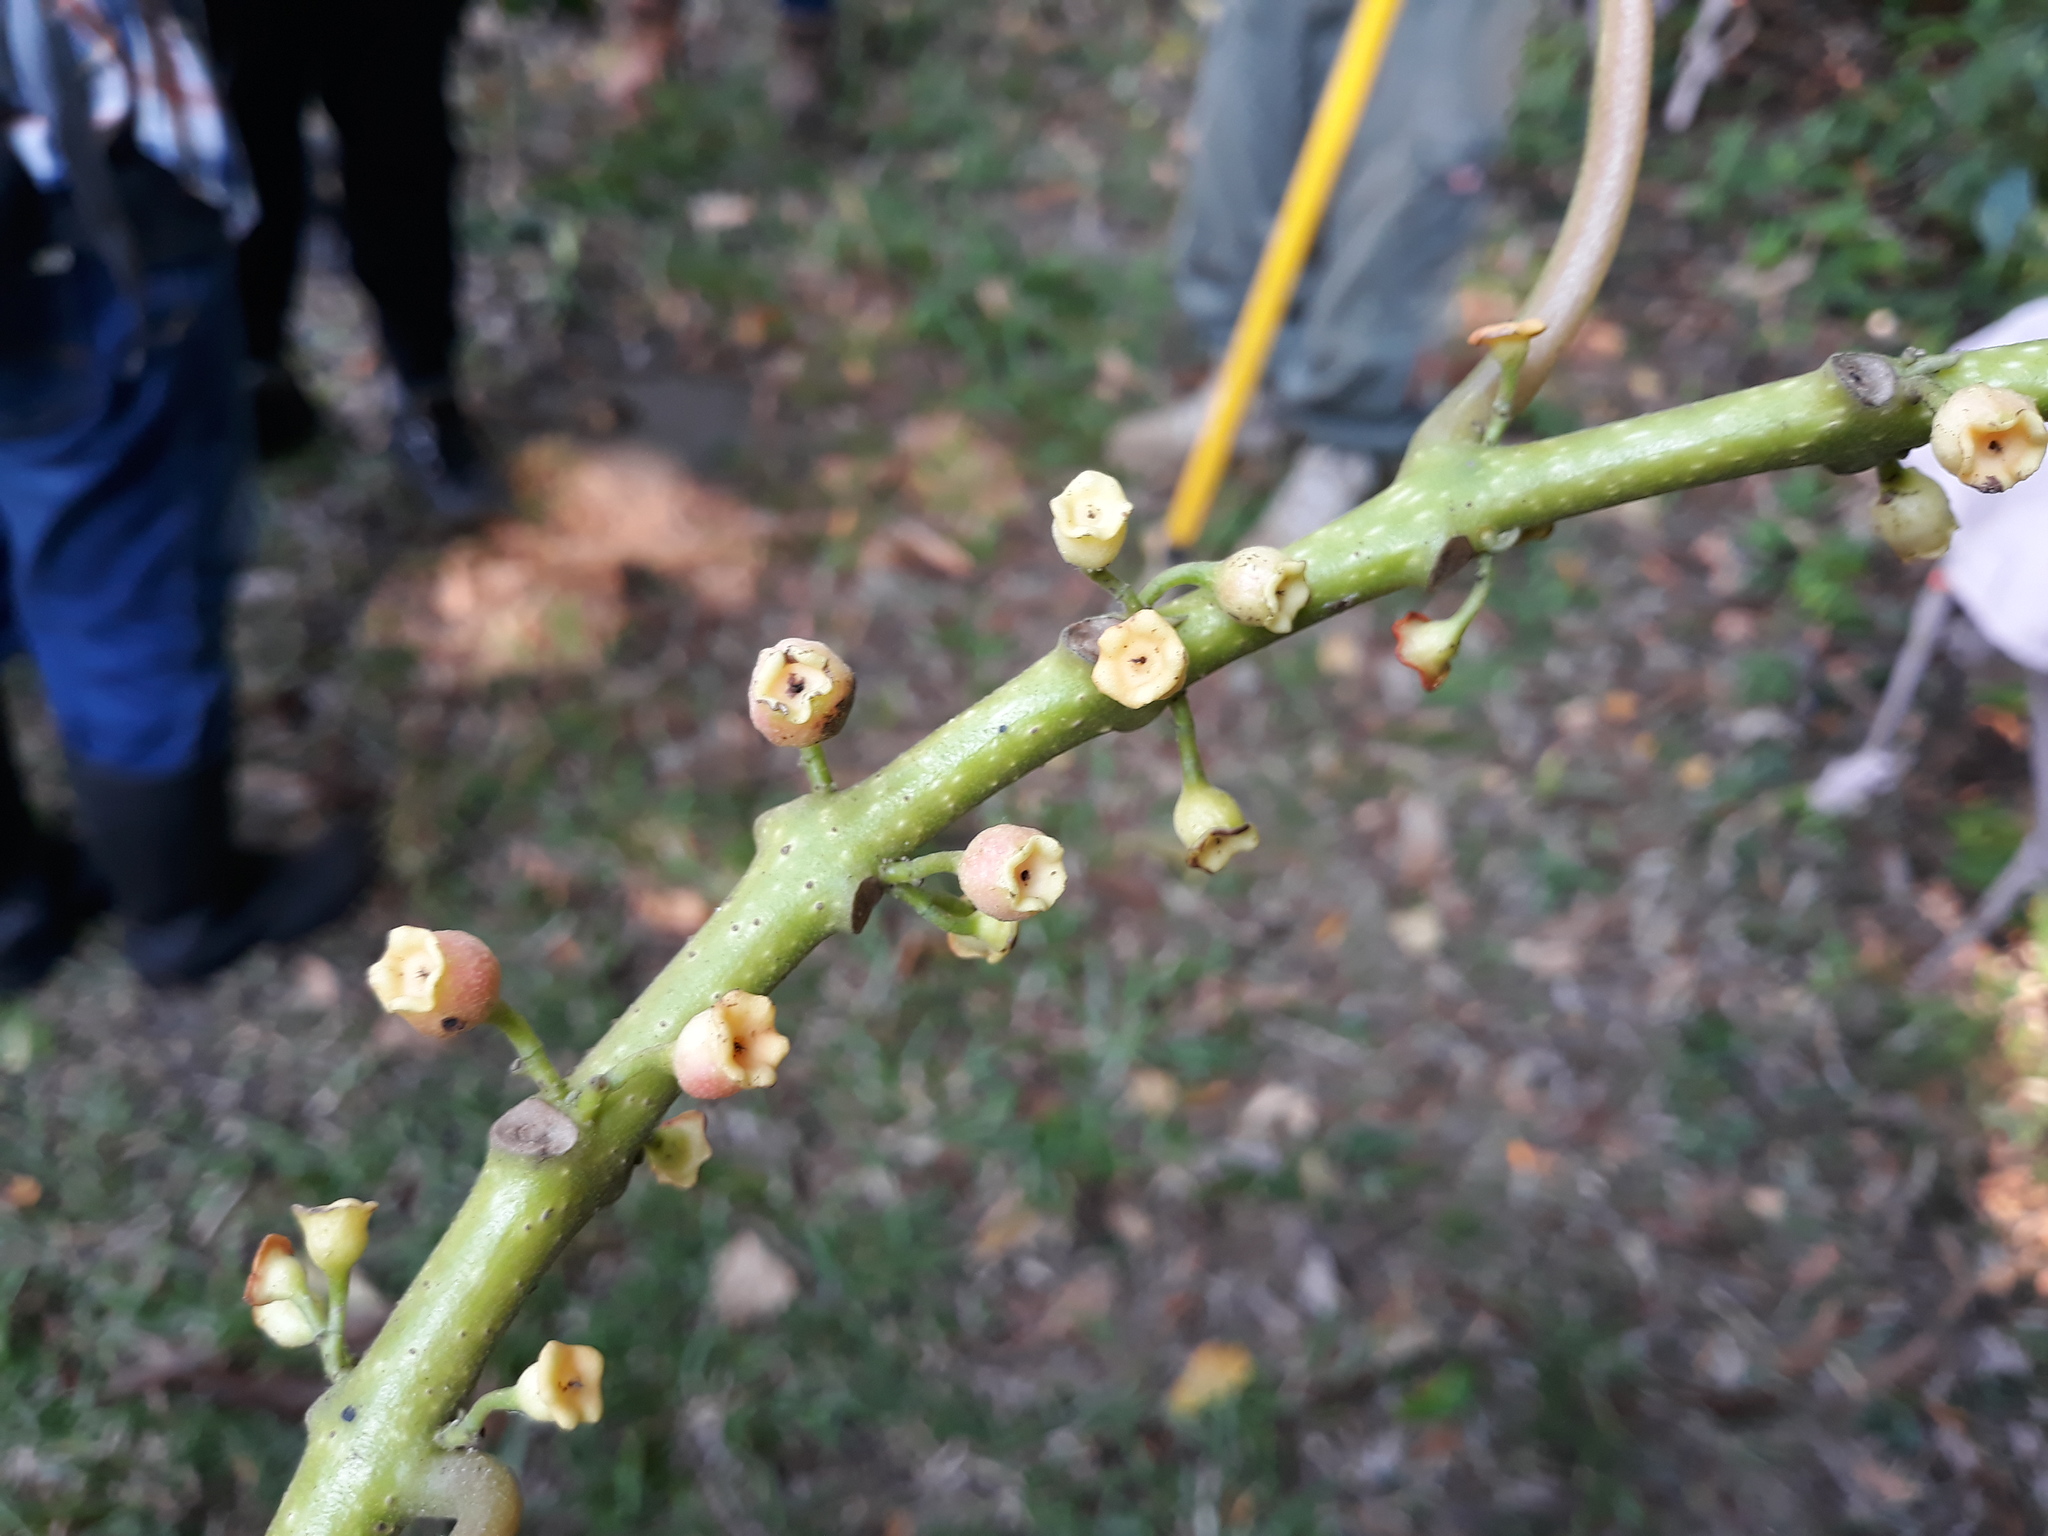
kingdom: Plantae
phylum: Tracheophyta
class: Magnoliopsida
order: Laurales
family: Siparunaceae
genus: Siparuna
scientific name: Siparuna thecaphora
